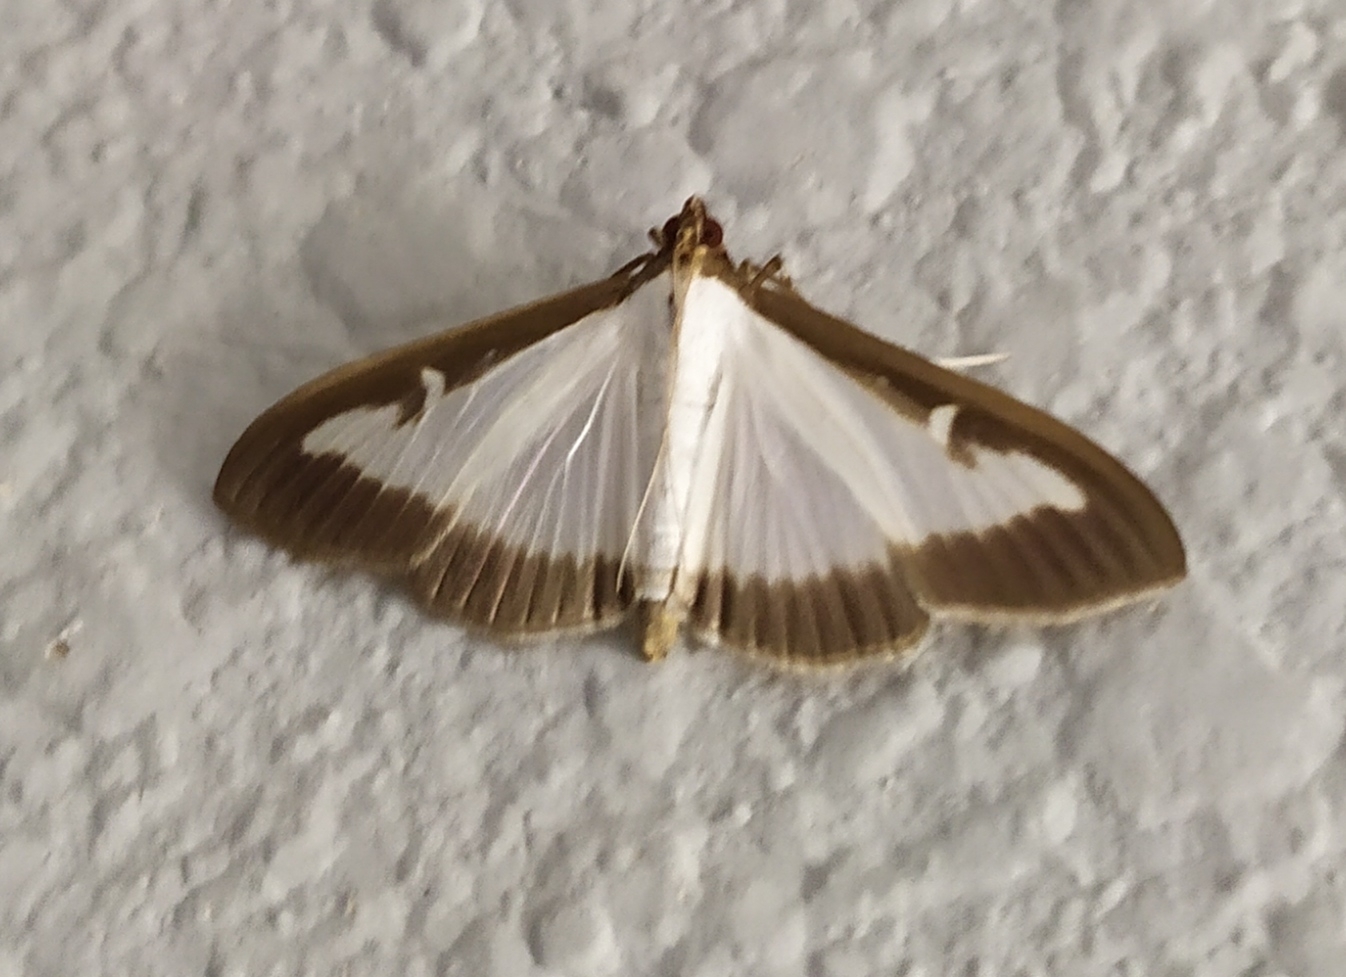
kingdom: Animalia
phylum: Arthropoda
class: Insecta
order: Lepidoptera
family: Crambidae
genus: Cydalima
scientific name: Cydalima perspectalis
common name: Box tree moth
